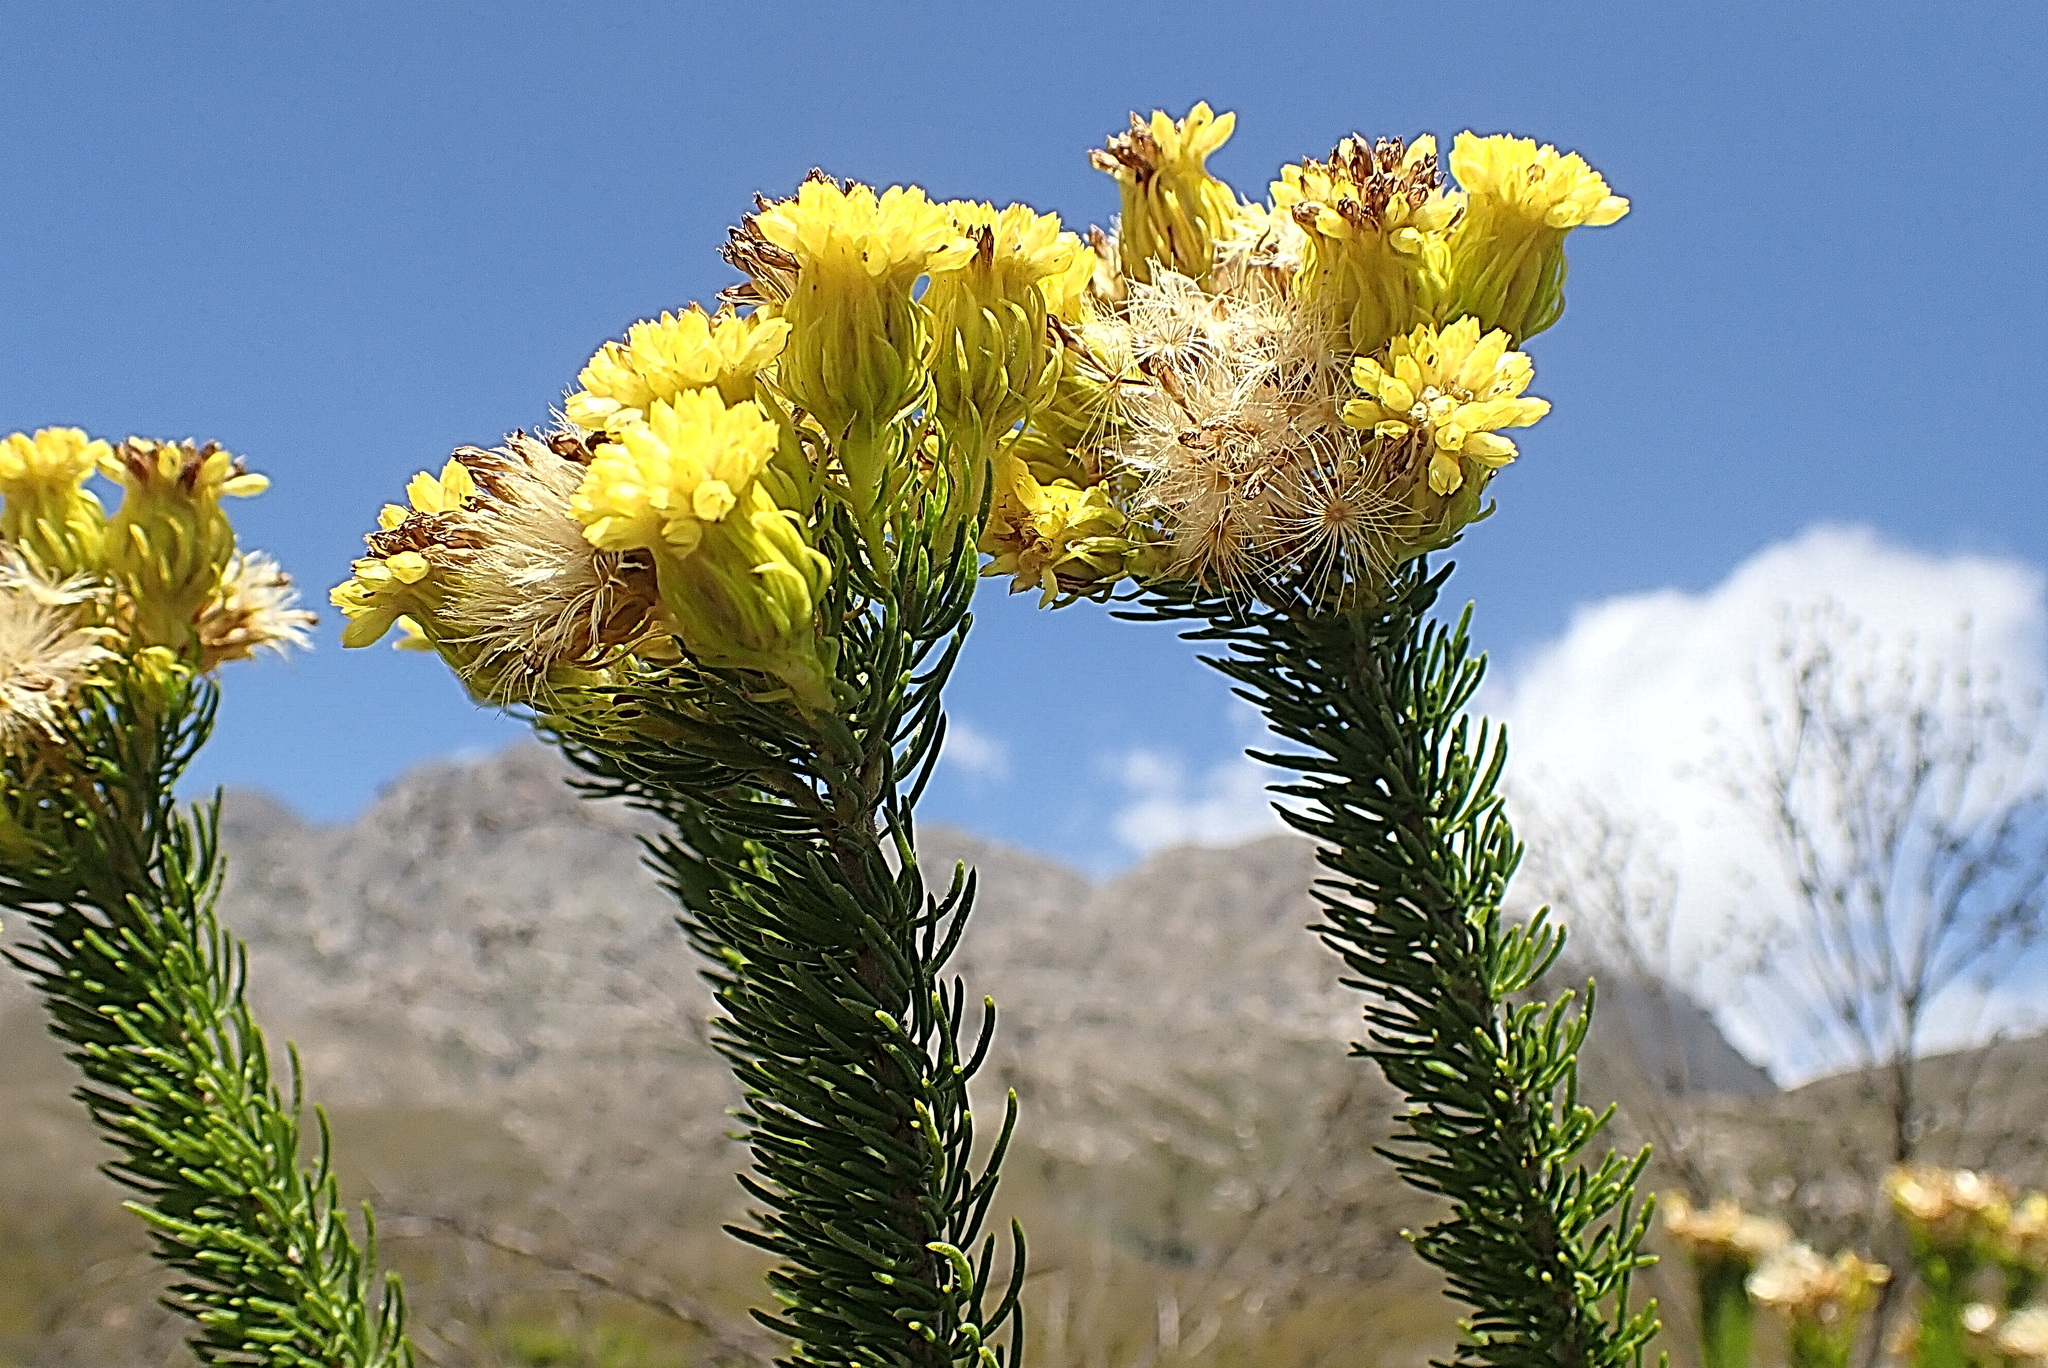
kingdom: Plantae
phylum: Tracheophyta
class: Magnoliopsida
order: Asterales
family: Asteraceae
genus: Pteronia
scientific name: Pteronia camphorata
